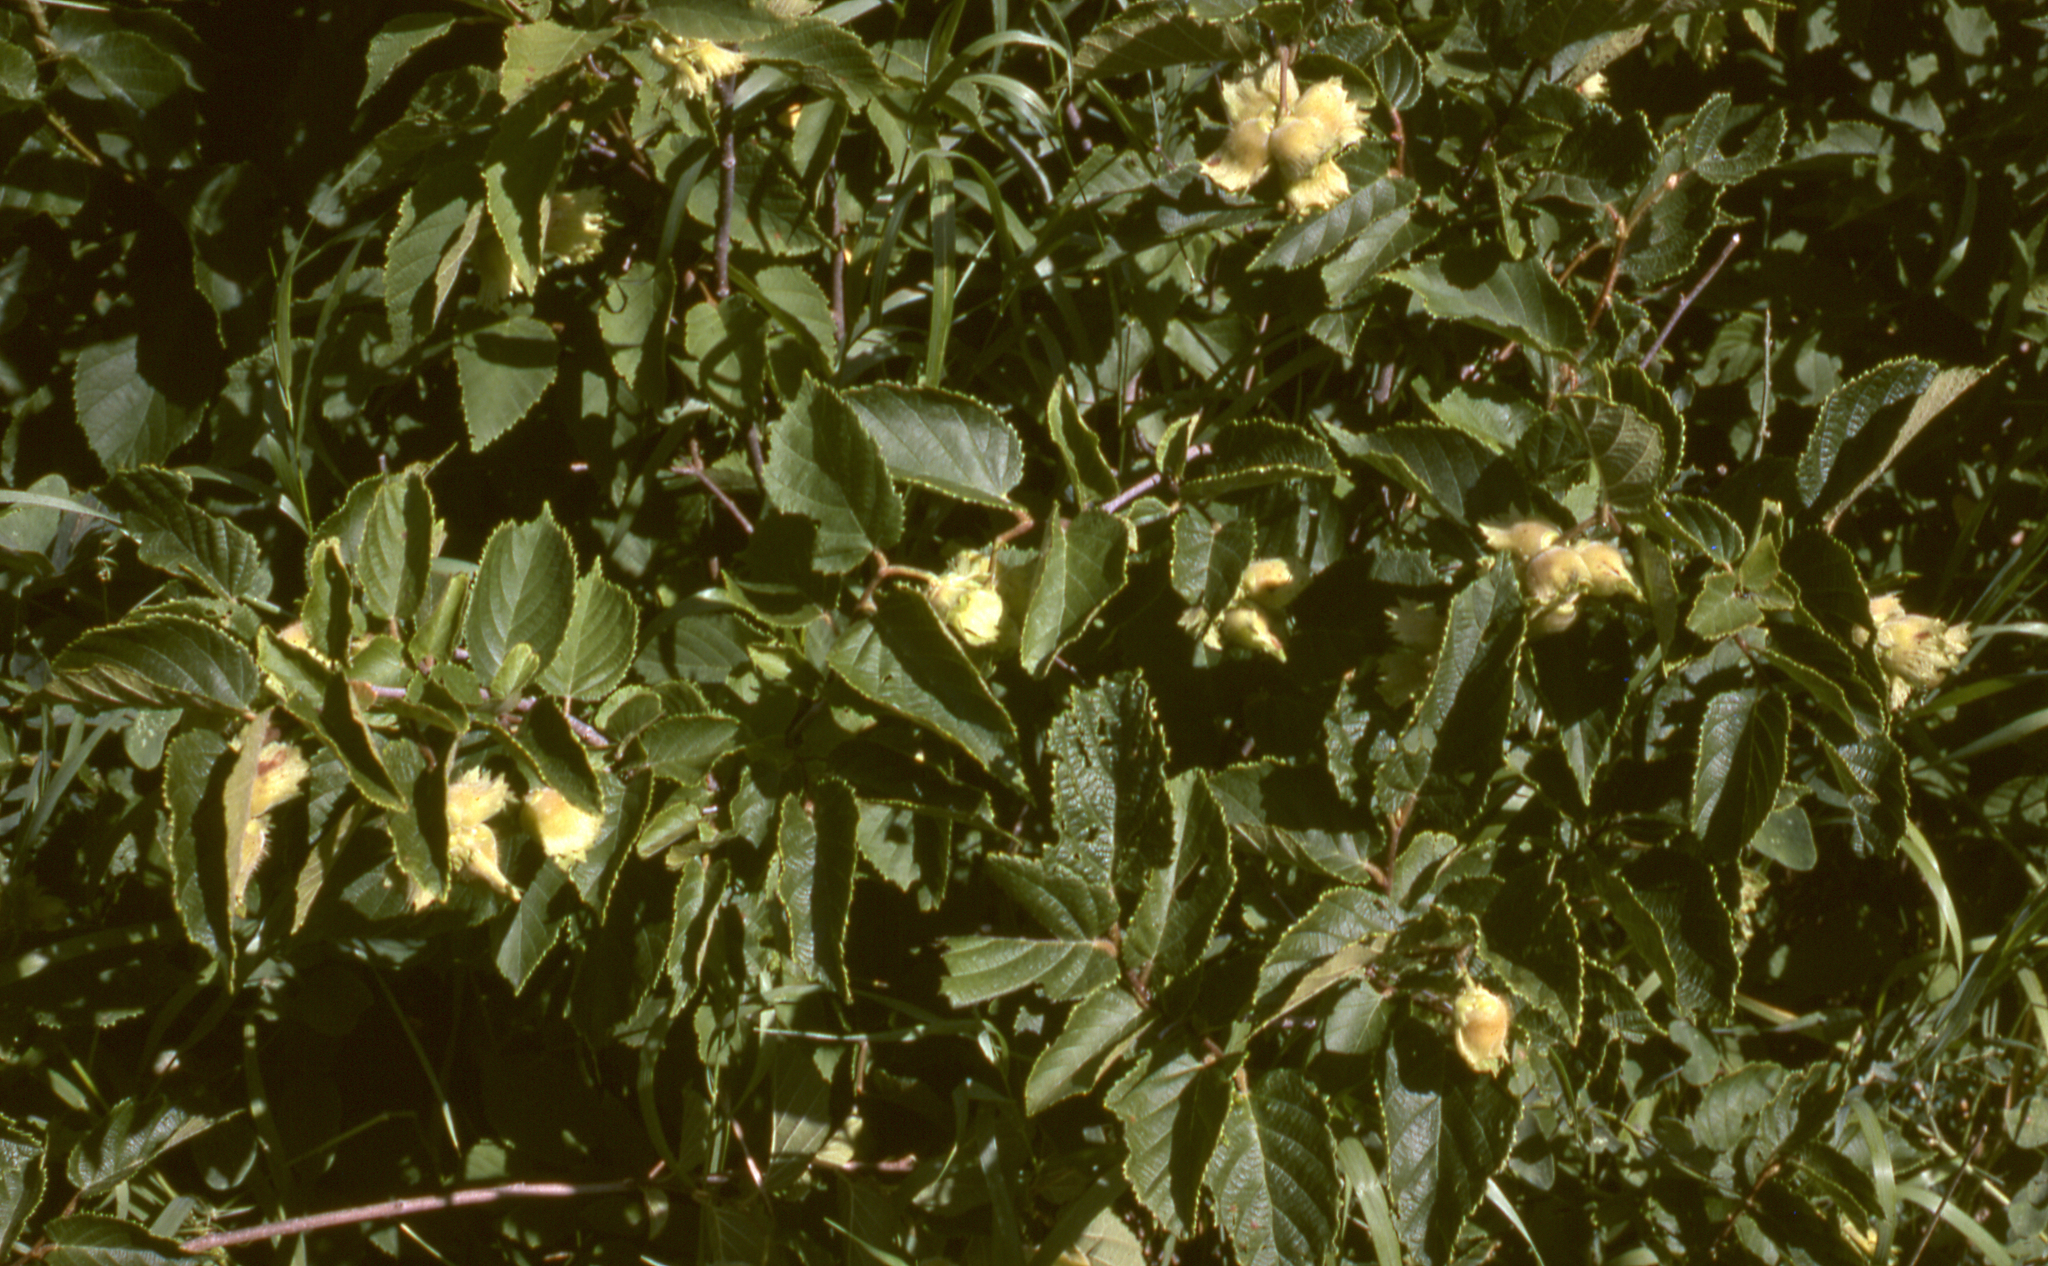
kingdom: Plantae
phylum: Tracheophyta
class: Magnoliopsida
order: Fagales
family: Betulaceae
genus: Corylus
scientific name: Corylus americana
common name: American hazel
